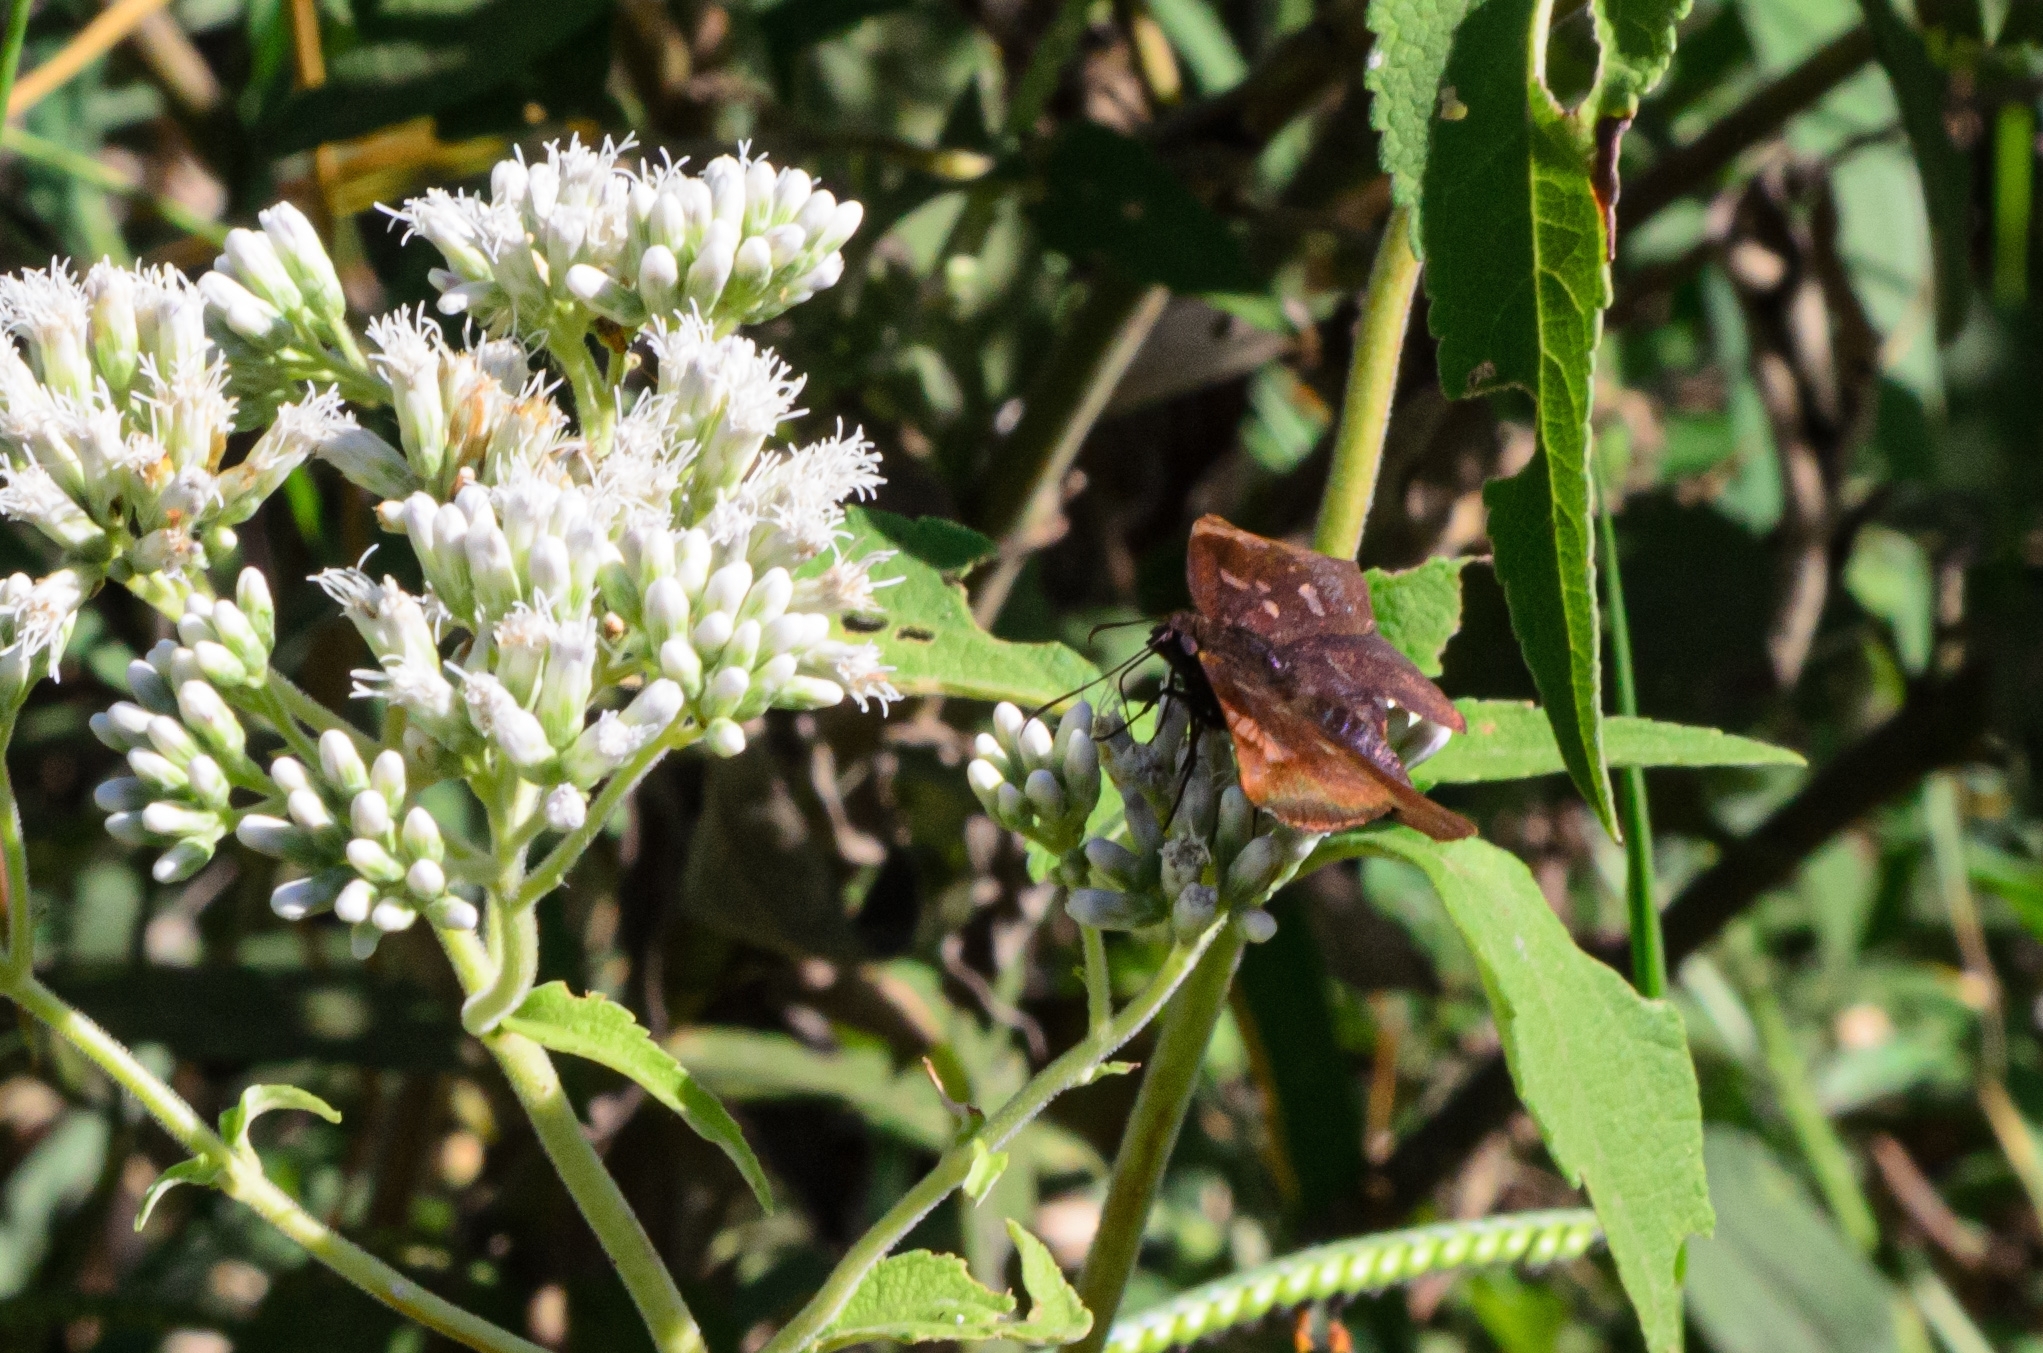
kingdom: Animalia
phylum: Arthropoda
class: Insecta
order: Lepidoptera
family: Hesperiidae
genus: Achlyodes
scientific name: Achlyodes thraso
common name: Sickle-winged skipper
